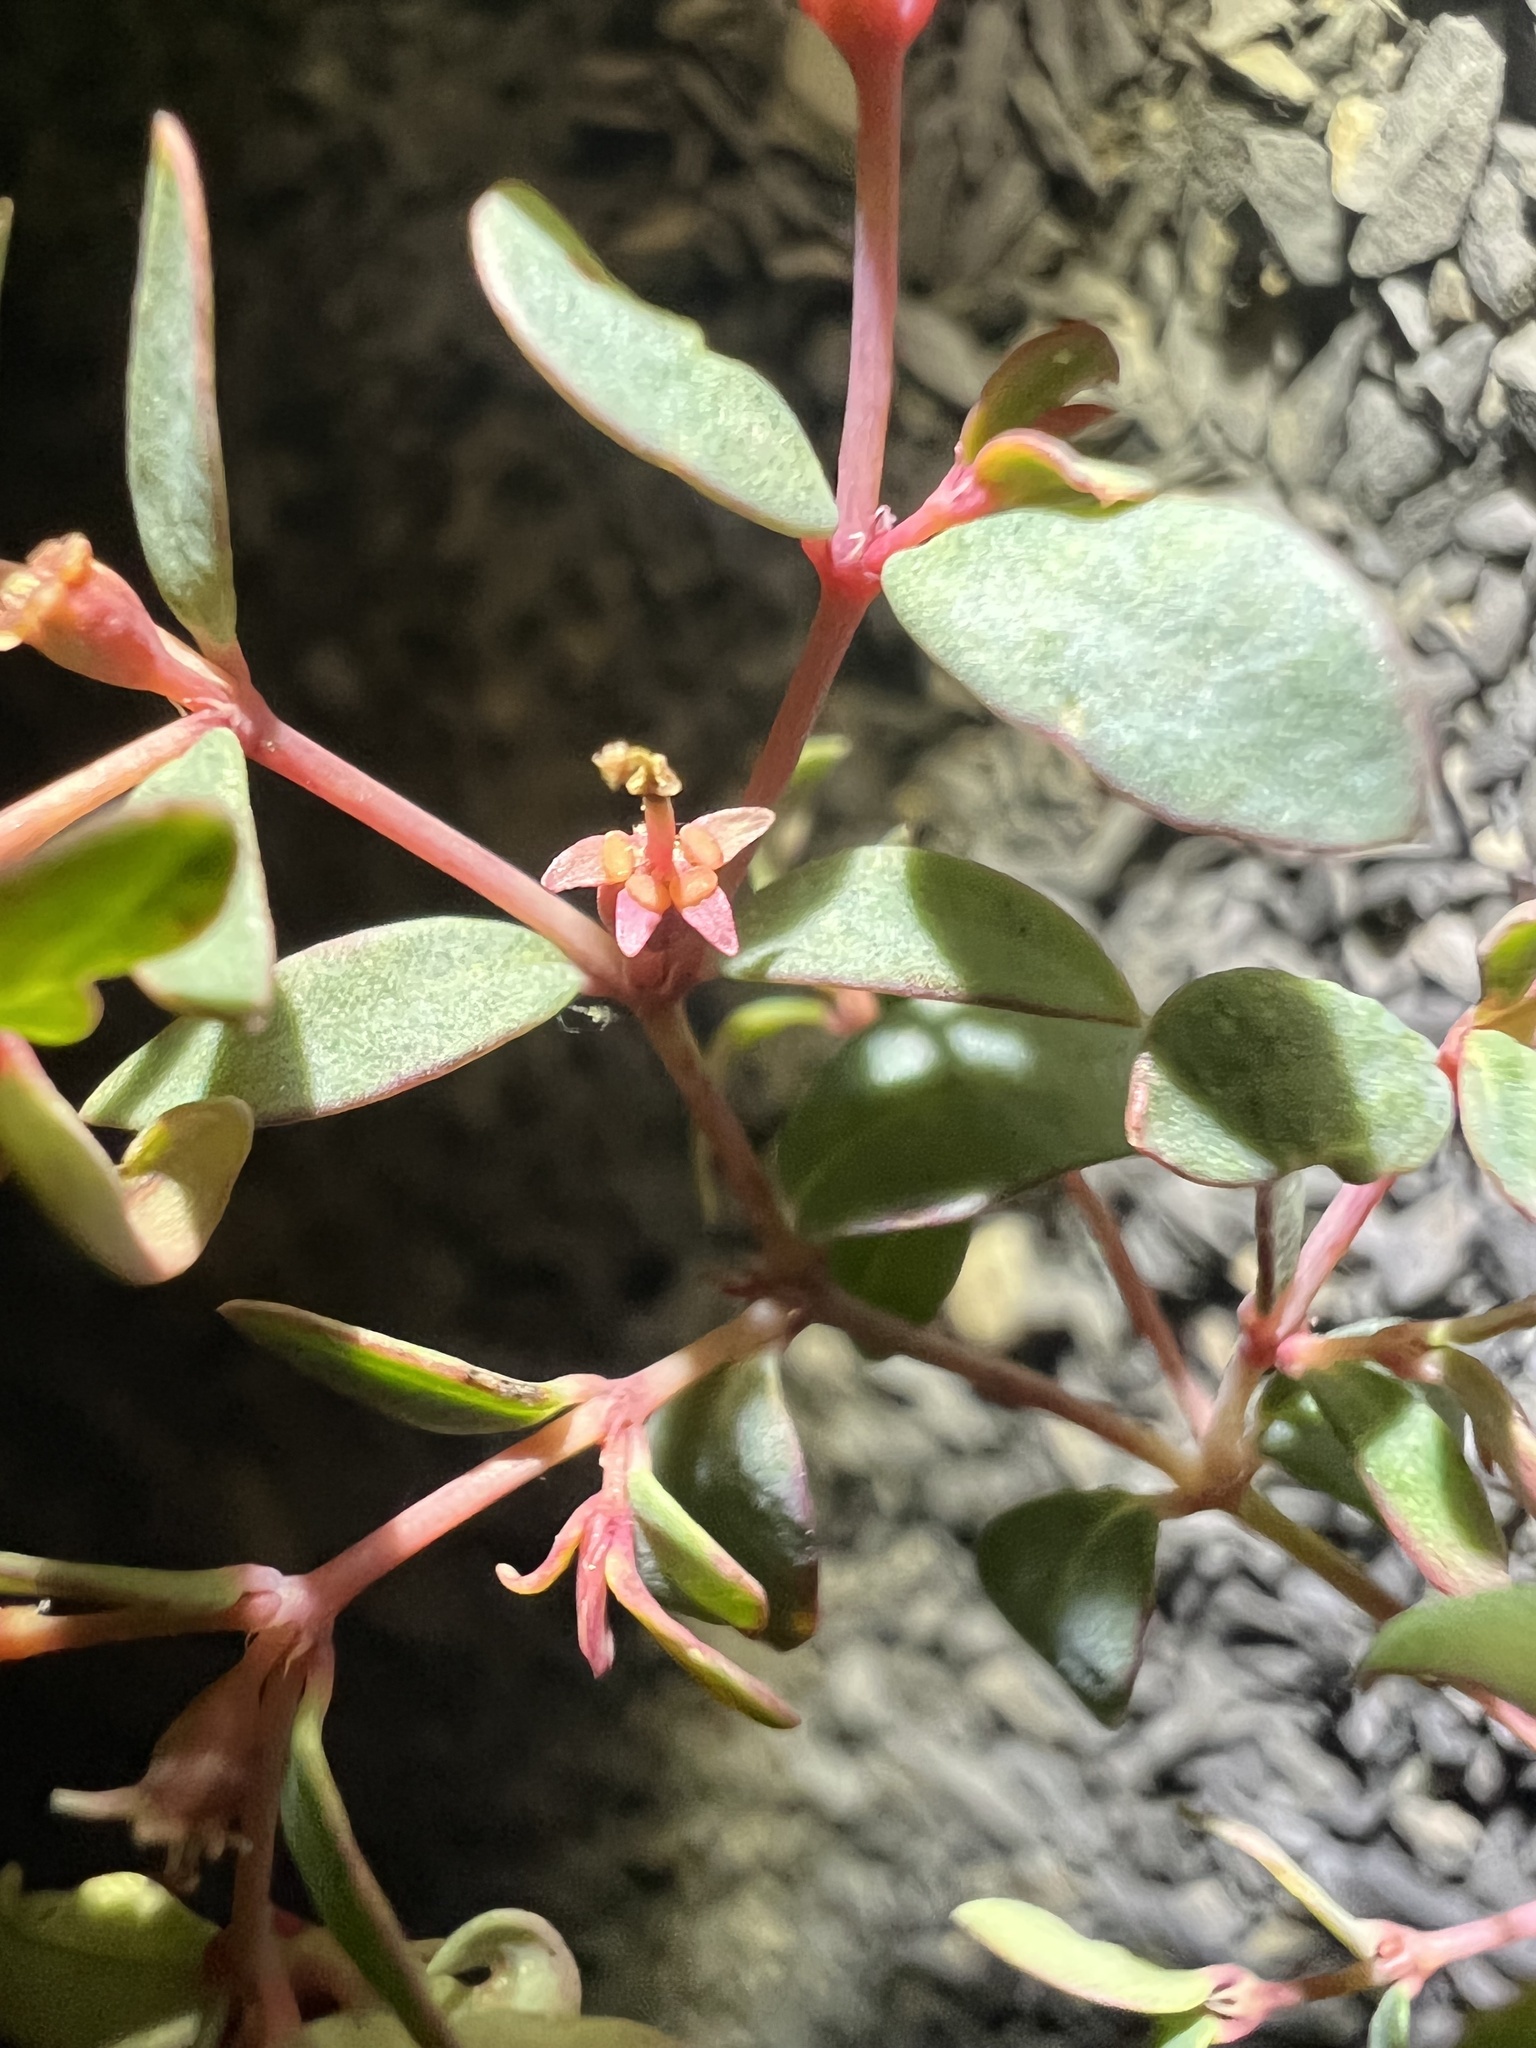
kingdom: Plantae
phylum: Tracheophyta
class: Magnoliopsida
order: Malpighiales
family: Euphorbiaceae
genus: Euphorbia
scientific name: Euphorbia fendleri
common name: Fendler's euphorbia
